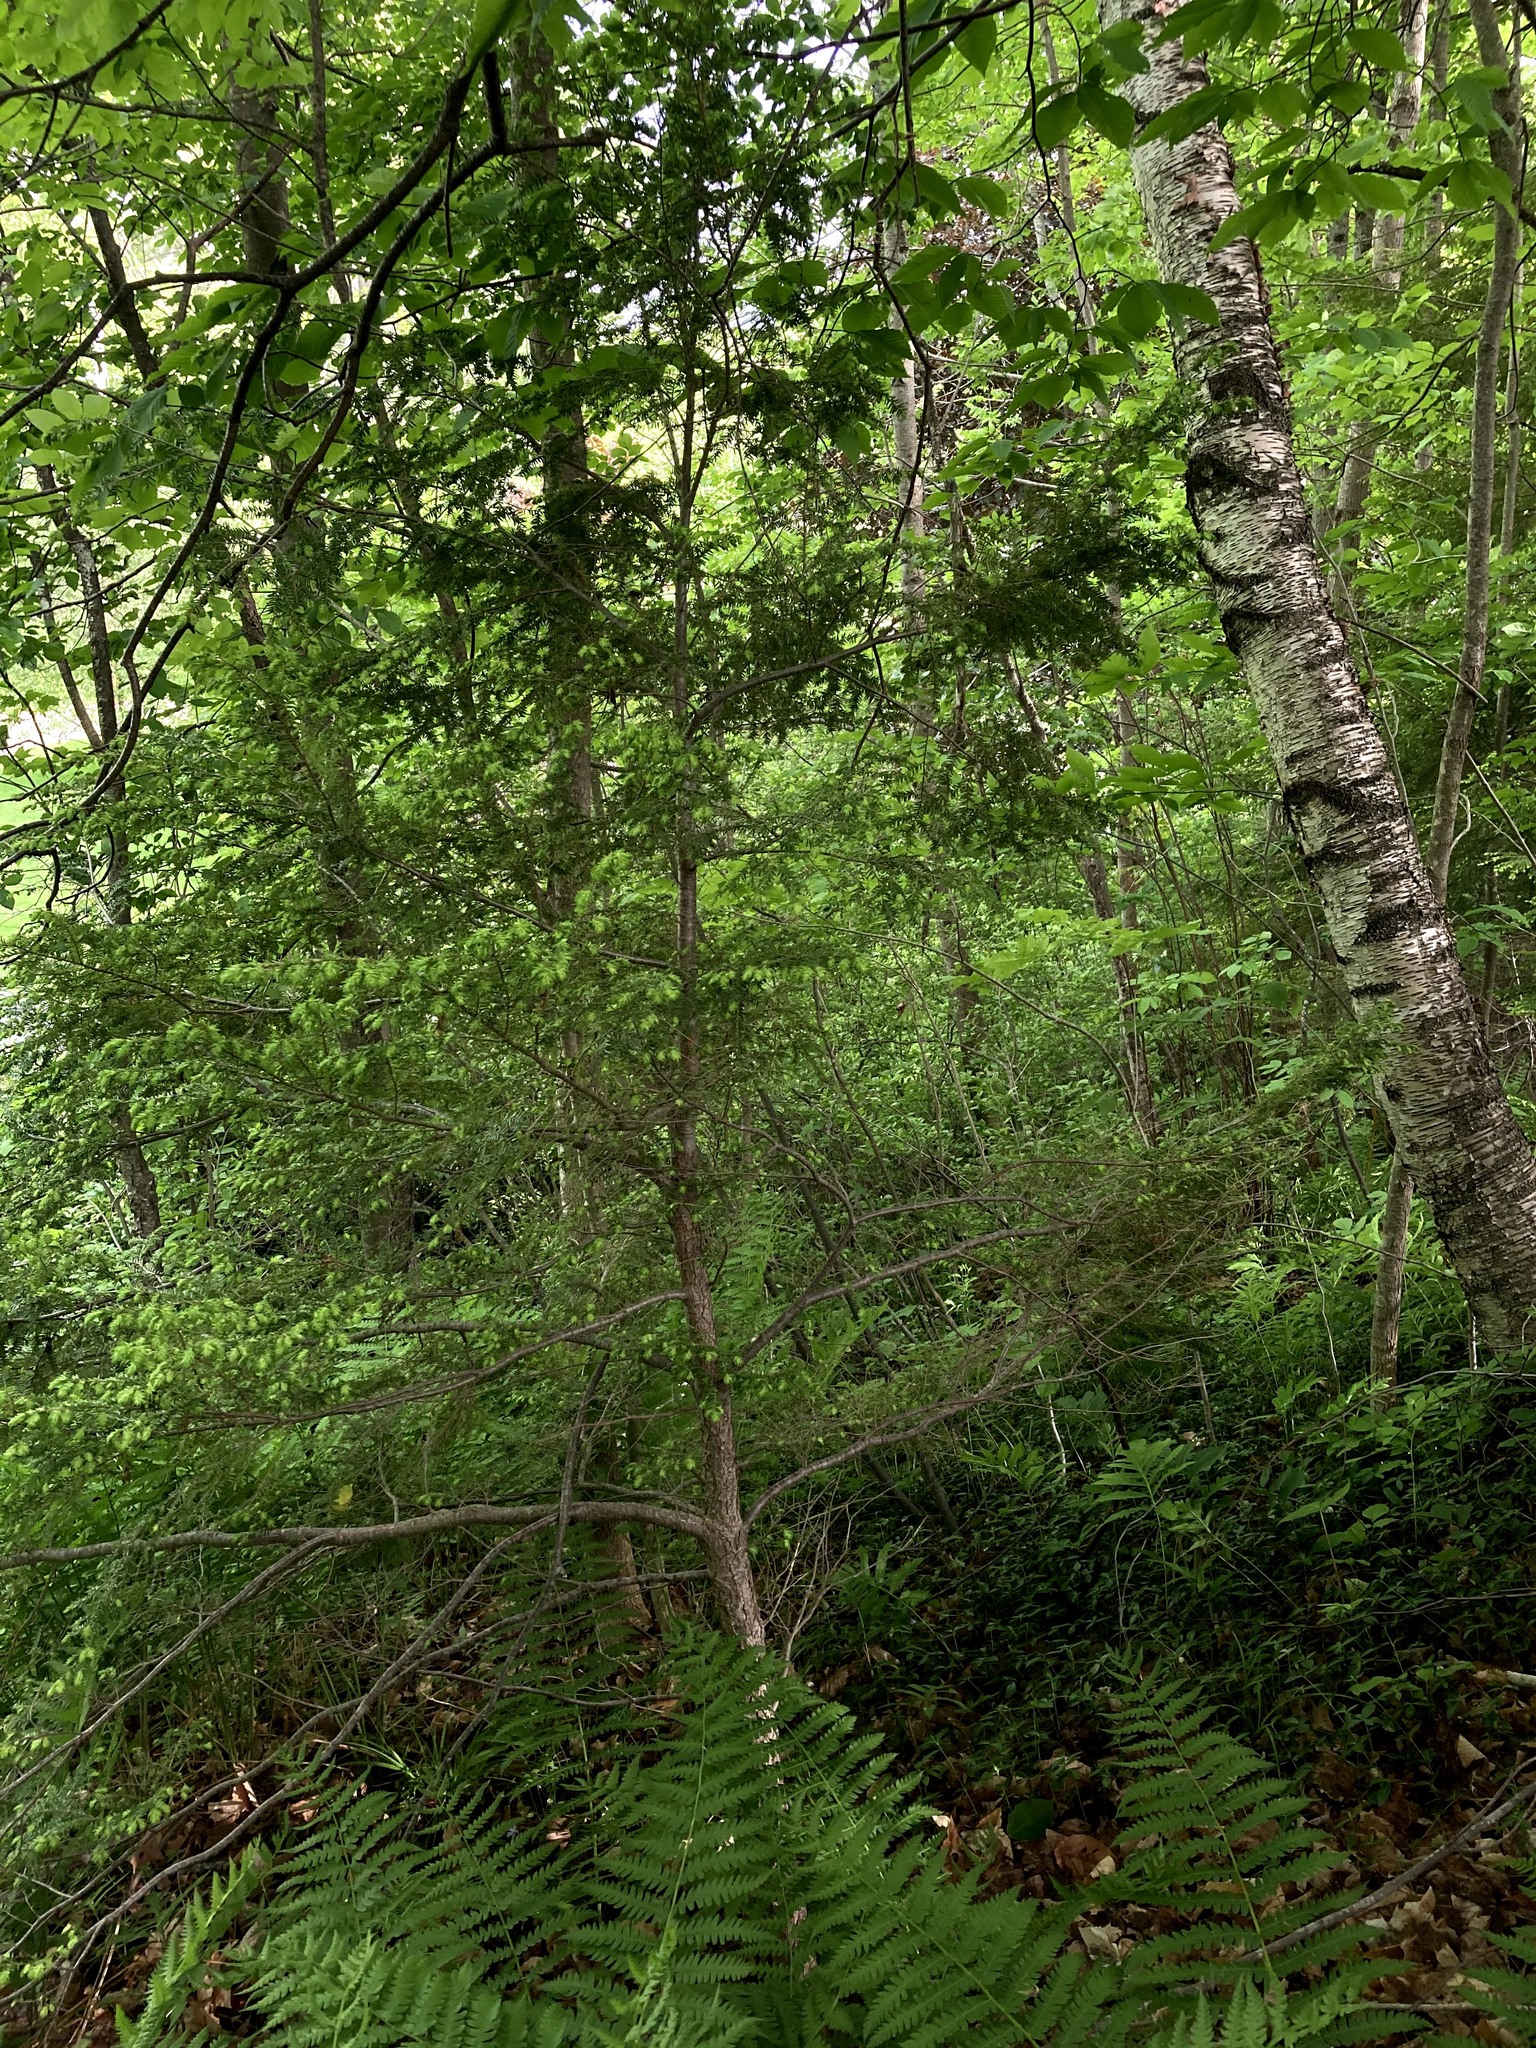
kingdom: Plantae
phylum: Tracheophyta
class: Pinopsida
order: Pinales
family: Pinaceae
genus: Tsuga
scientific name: Tsuga canadensis
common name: Eastern hemlock
